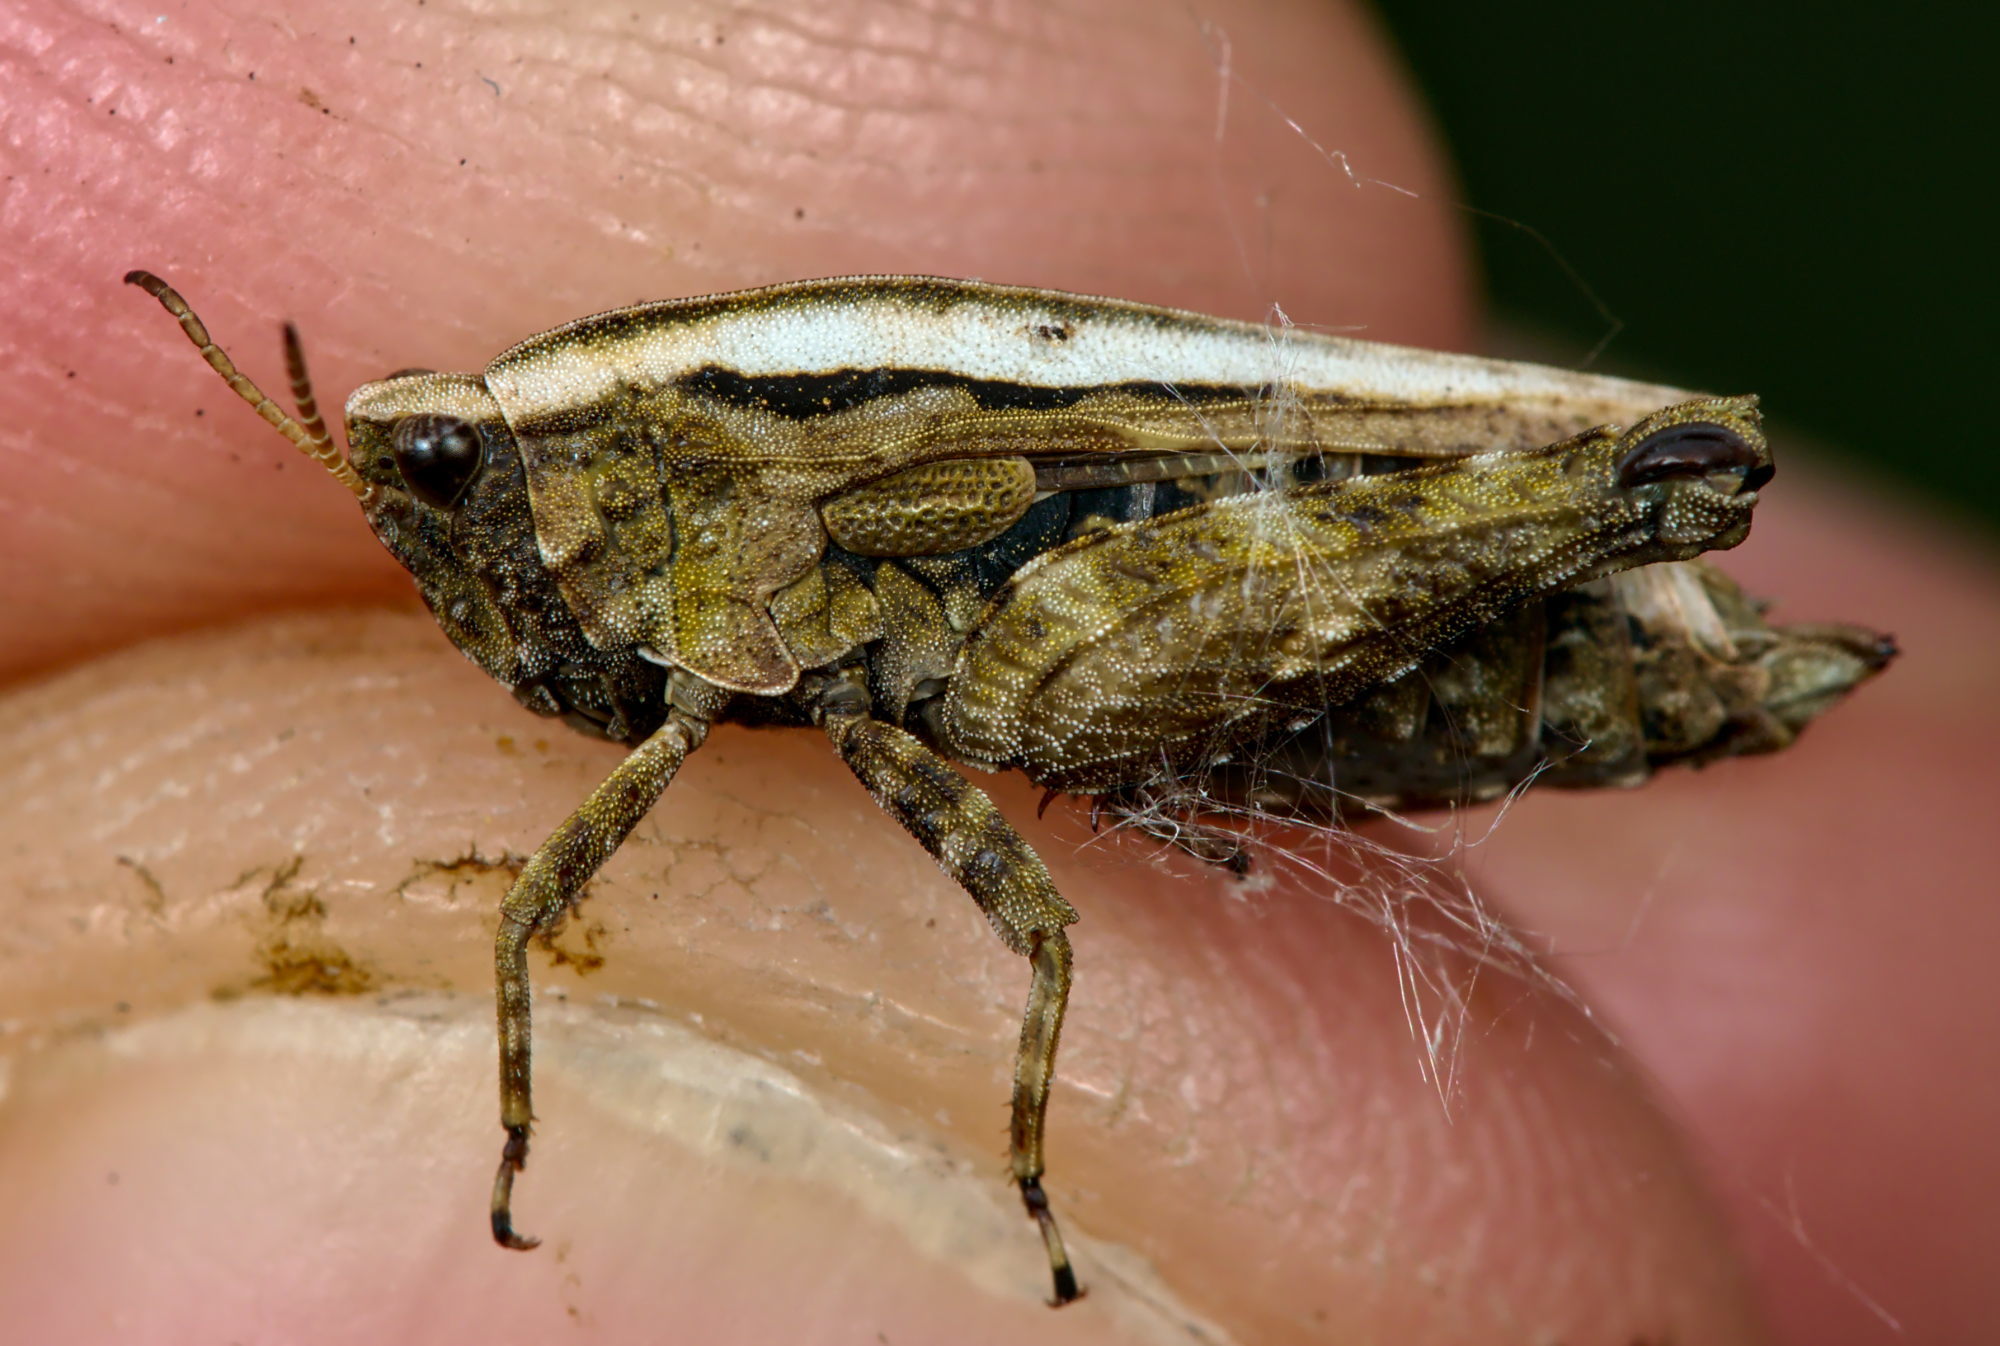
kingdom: Animalia
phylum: Arthropoda
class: Insecta
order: Orthoptera
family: Tetrigidae
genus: Tetrix
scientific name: Tetrix undulata
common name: Common groundhopper
